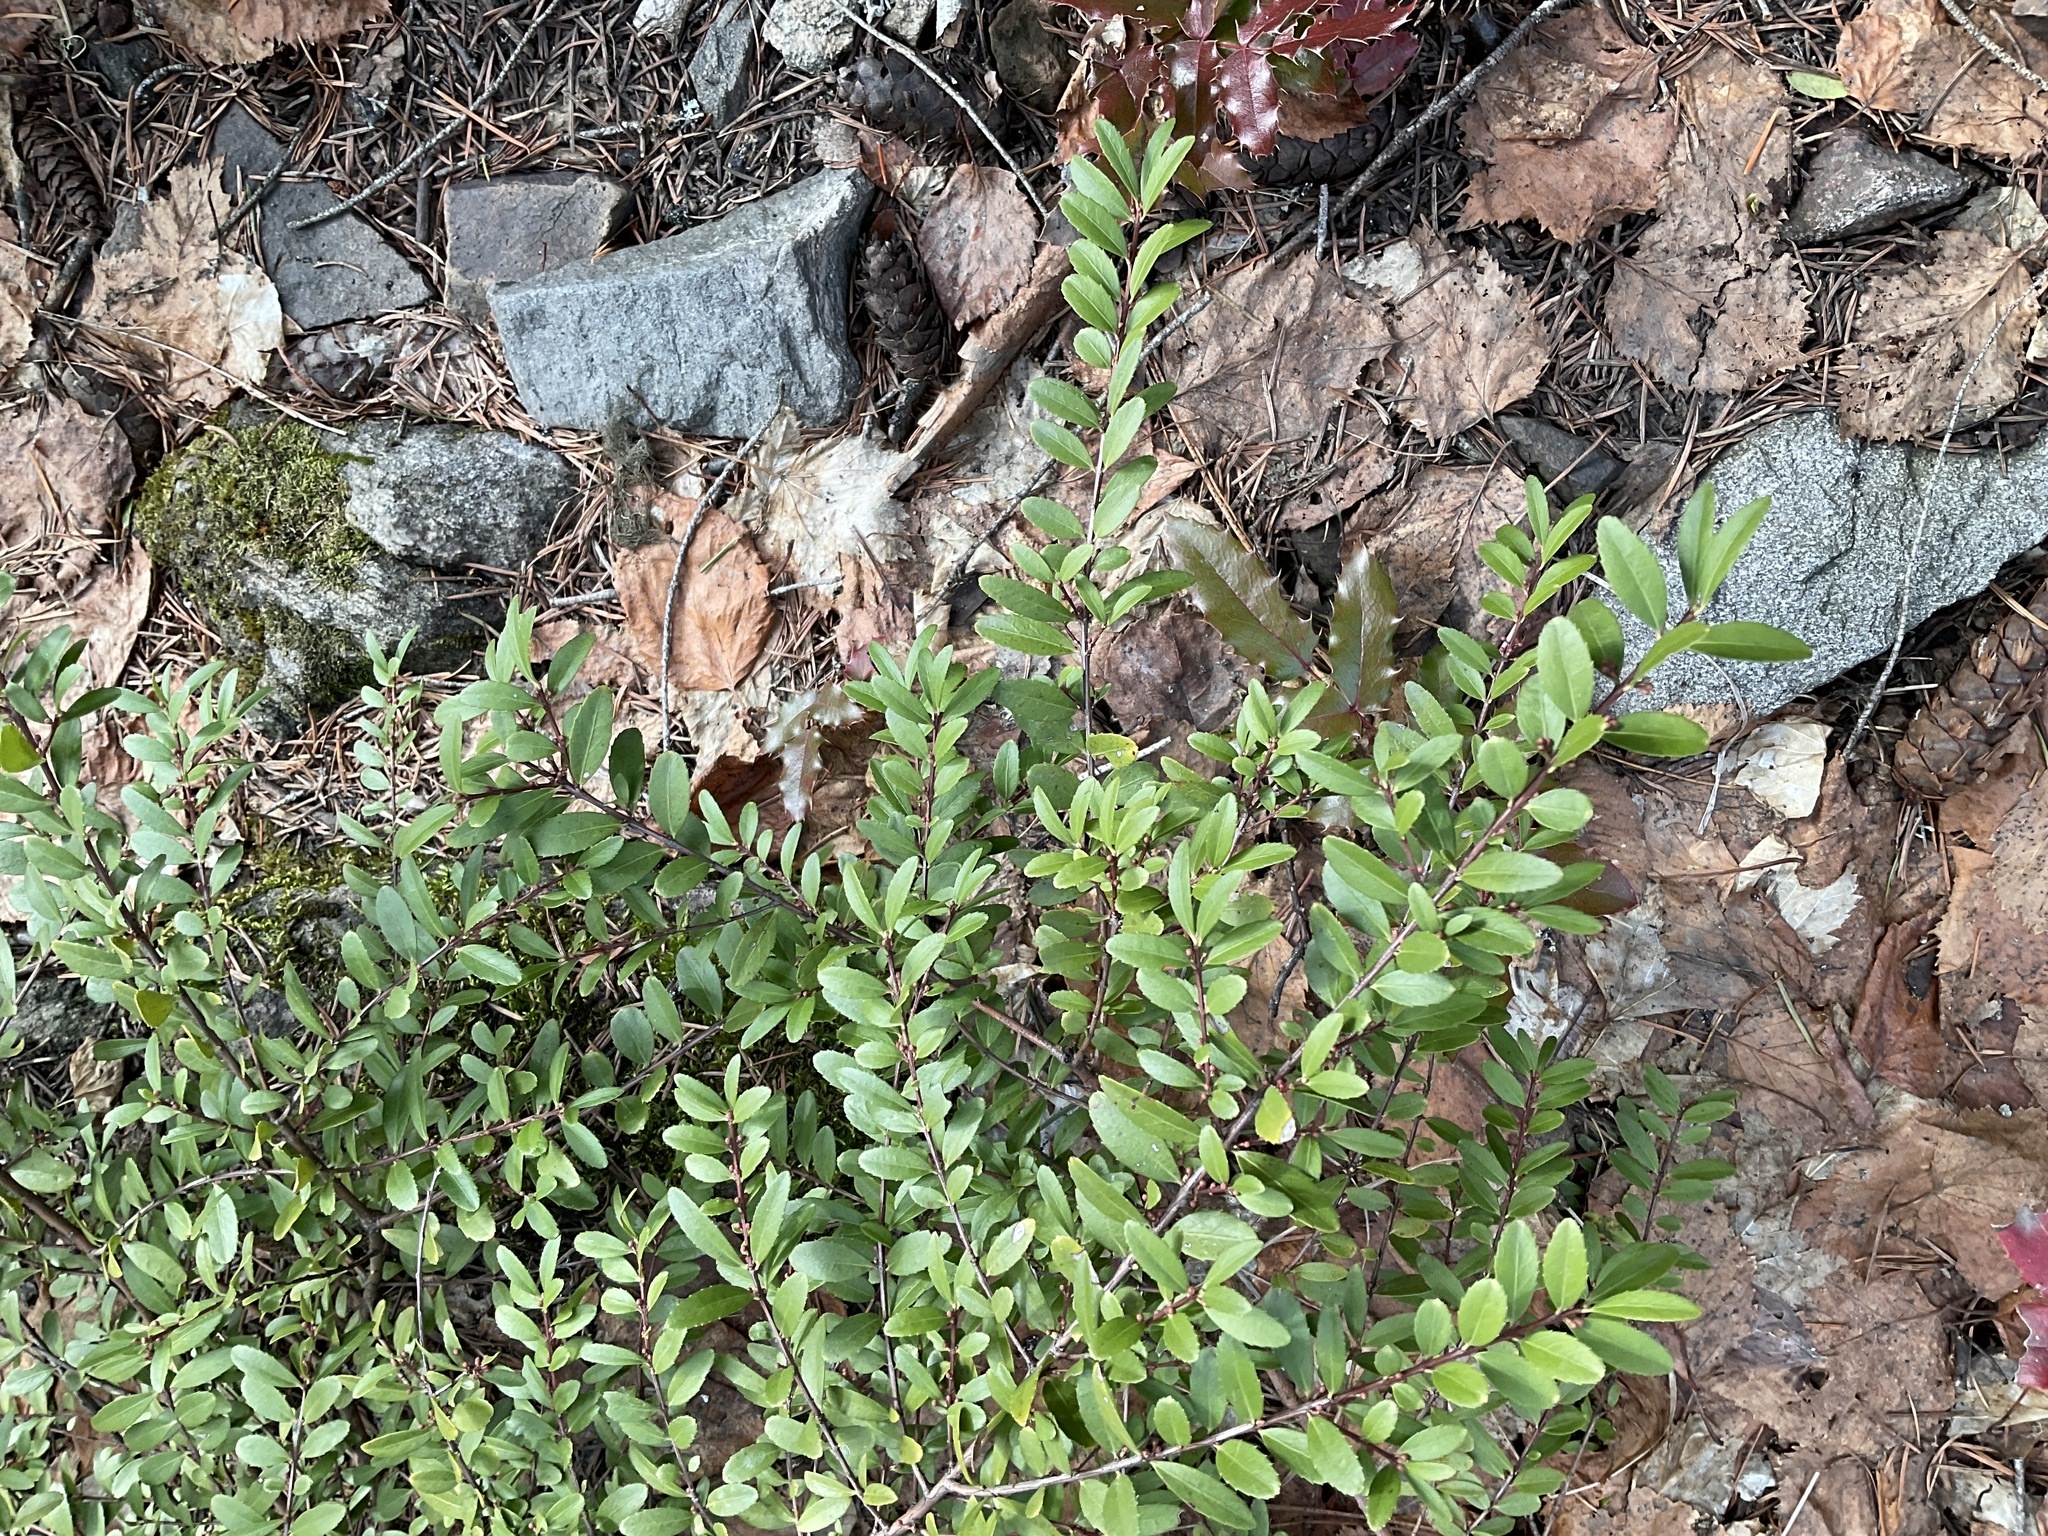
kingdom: Plantae
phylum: Tracheophyta
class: Magnoliopsida
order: Celastrales
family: Celastraceae
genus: Paxistima
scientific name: Paxistima myrsinites
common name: Mountain-lover
